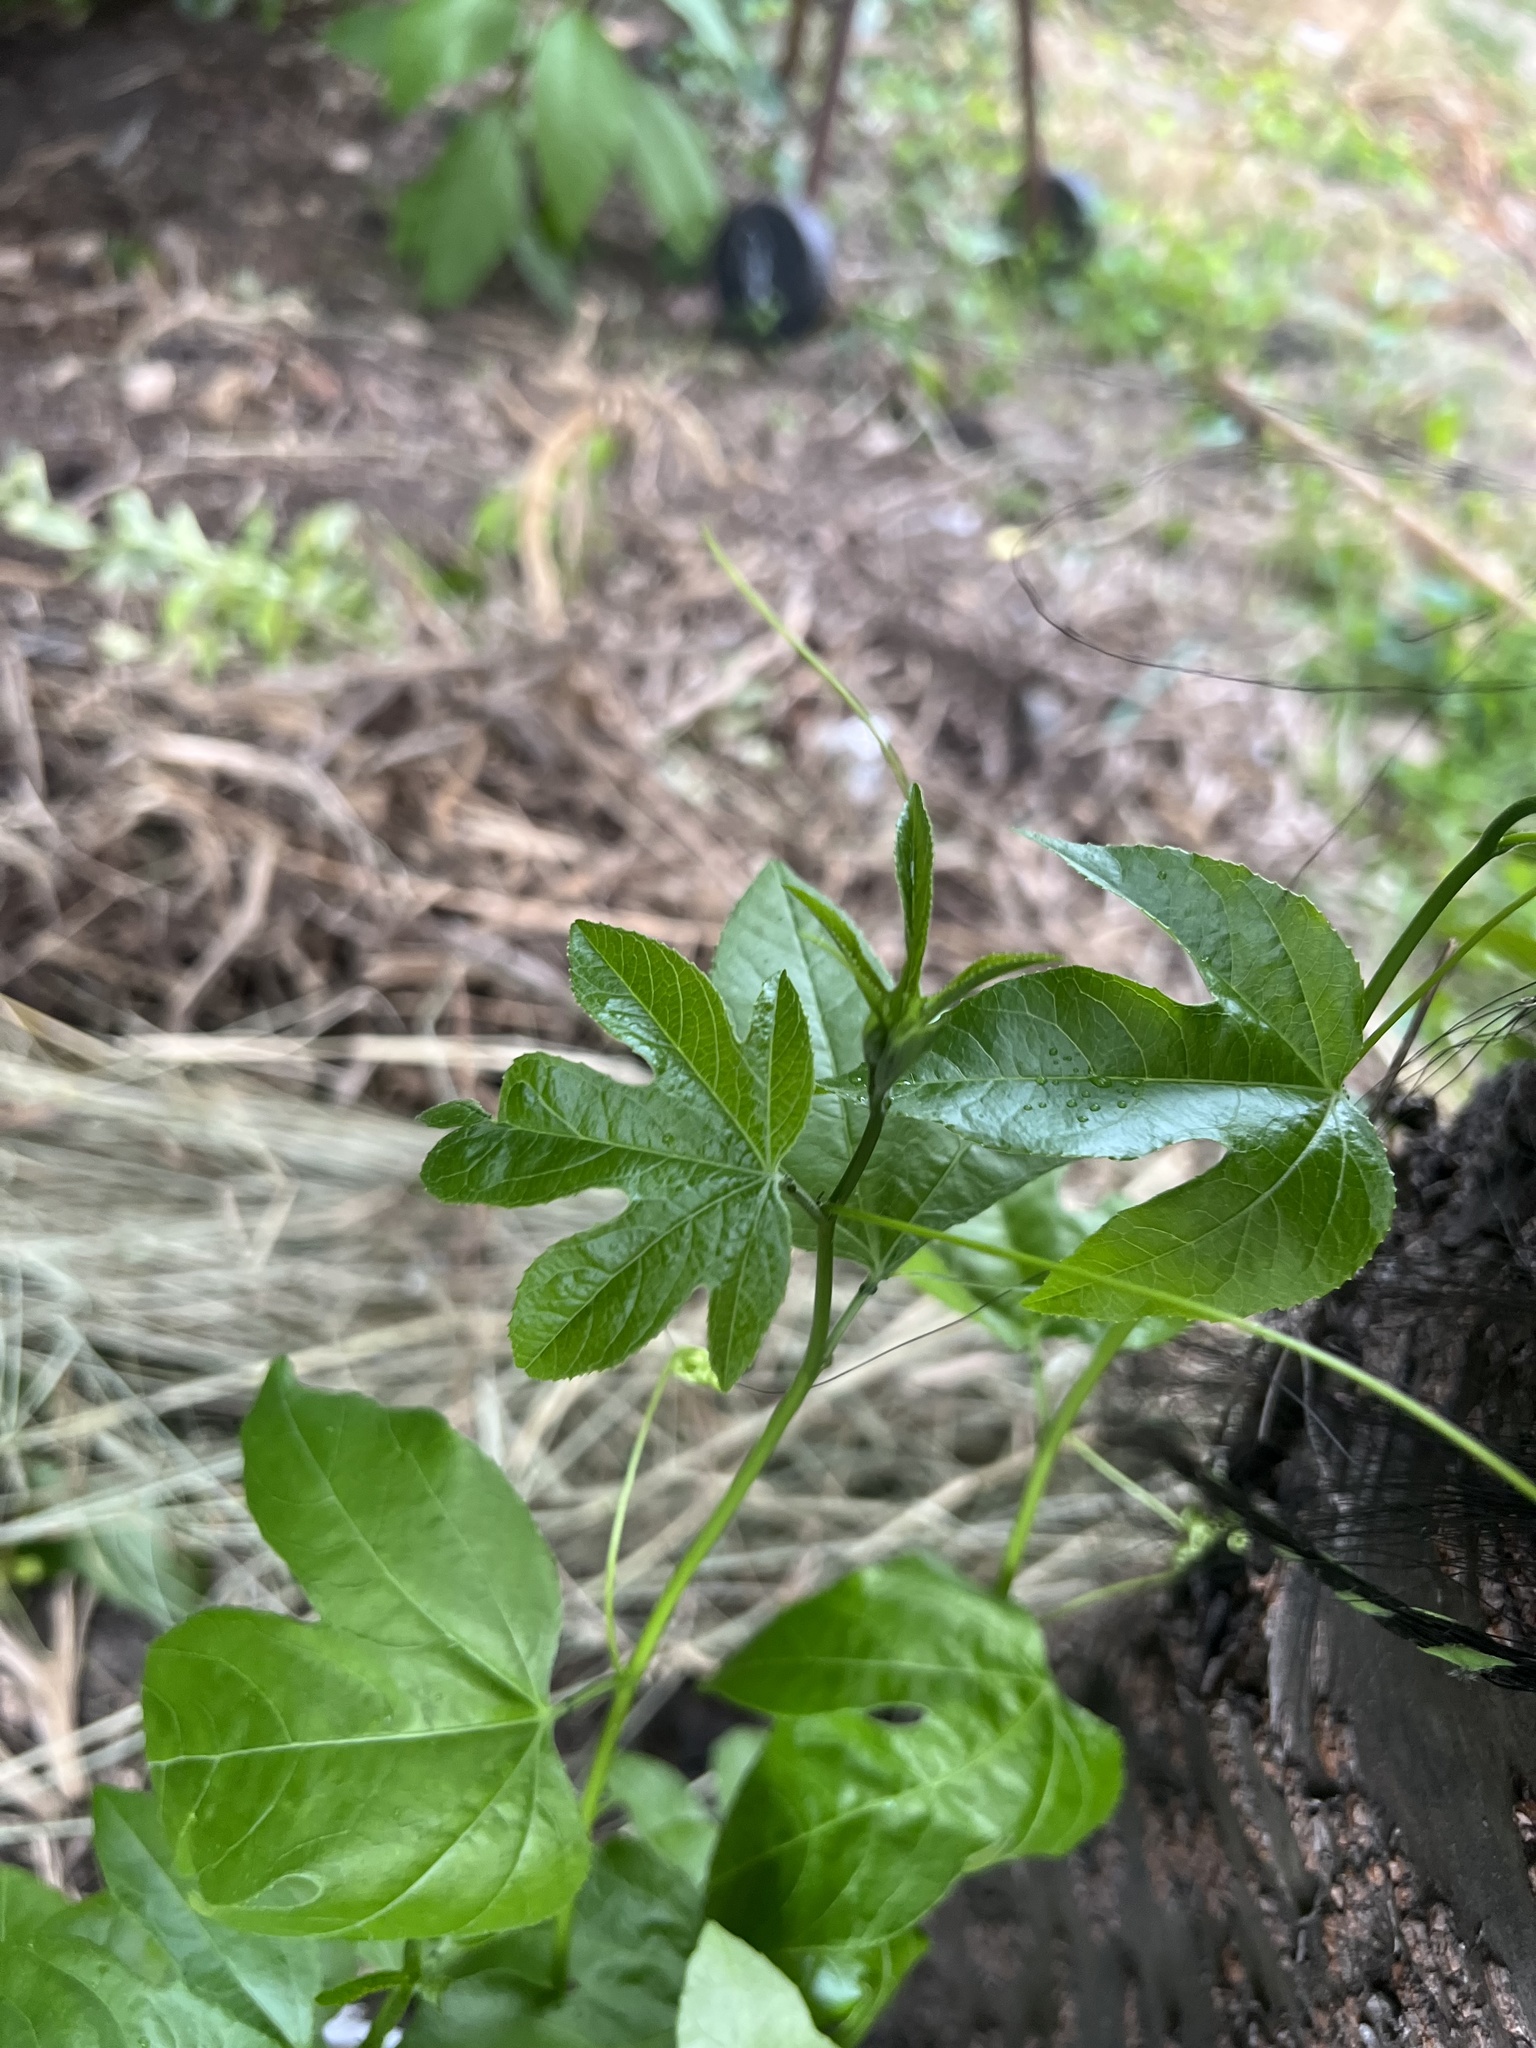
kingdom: Plantae
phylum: Tracheophyta
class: Magnoliopsida
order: Malpighiales
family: Passifloraceae
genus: Passiflora
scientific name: Passiflora incarnata
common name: Apricot-vine
